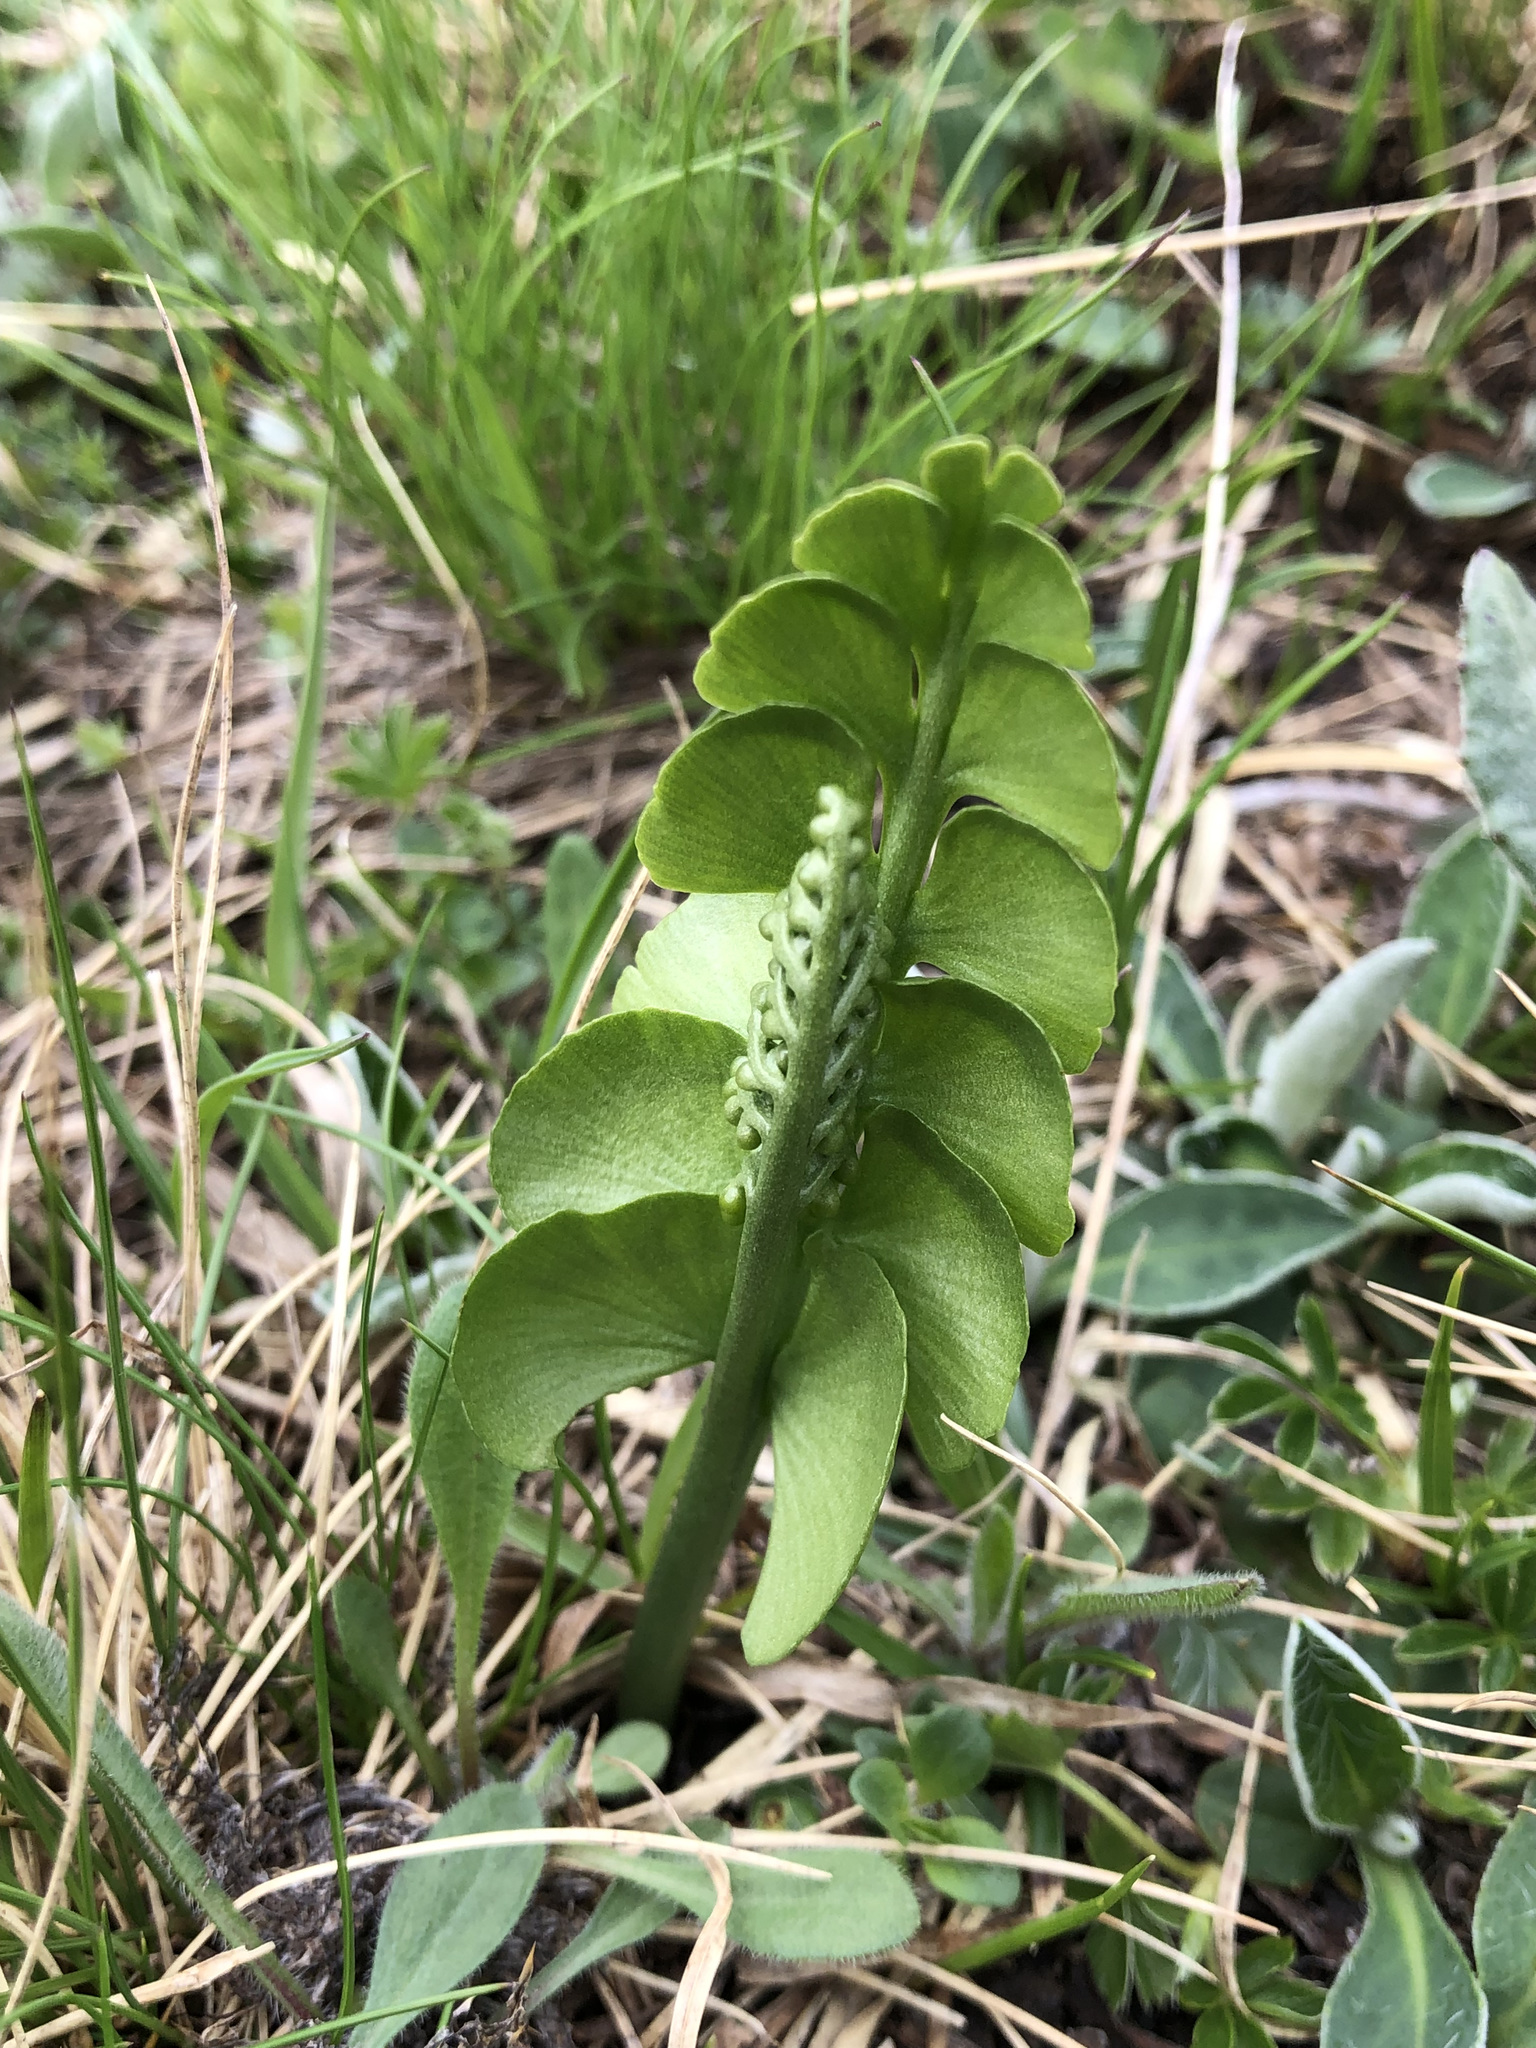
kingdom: Plantae
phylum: Tracheophyta
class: Polypodiopsida
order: Ophioglossales
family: Ophioglossaceae
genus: Botrychium
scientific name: Botrychium lunaria
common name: Moonwort
